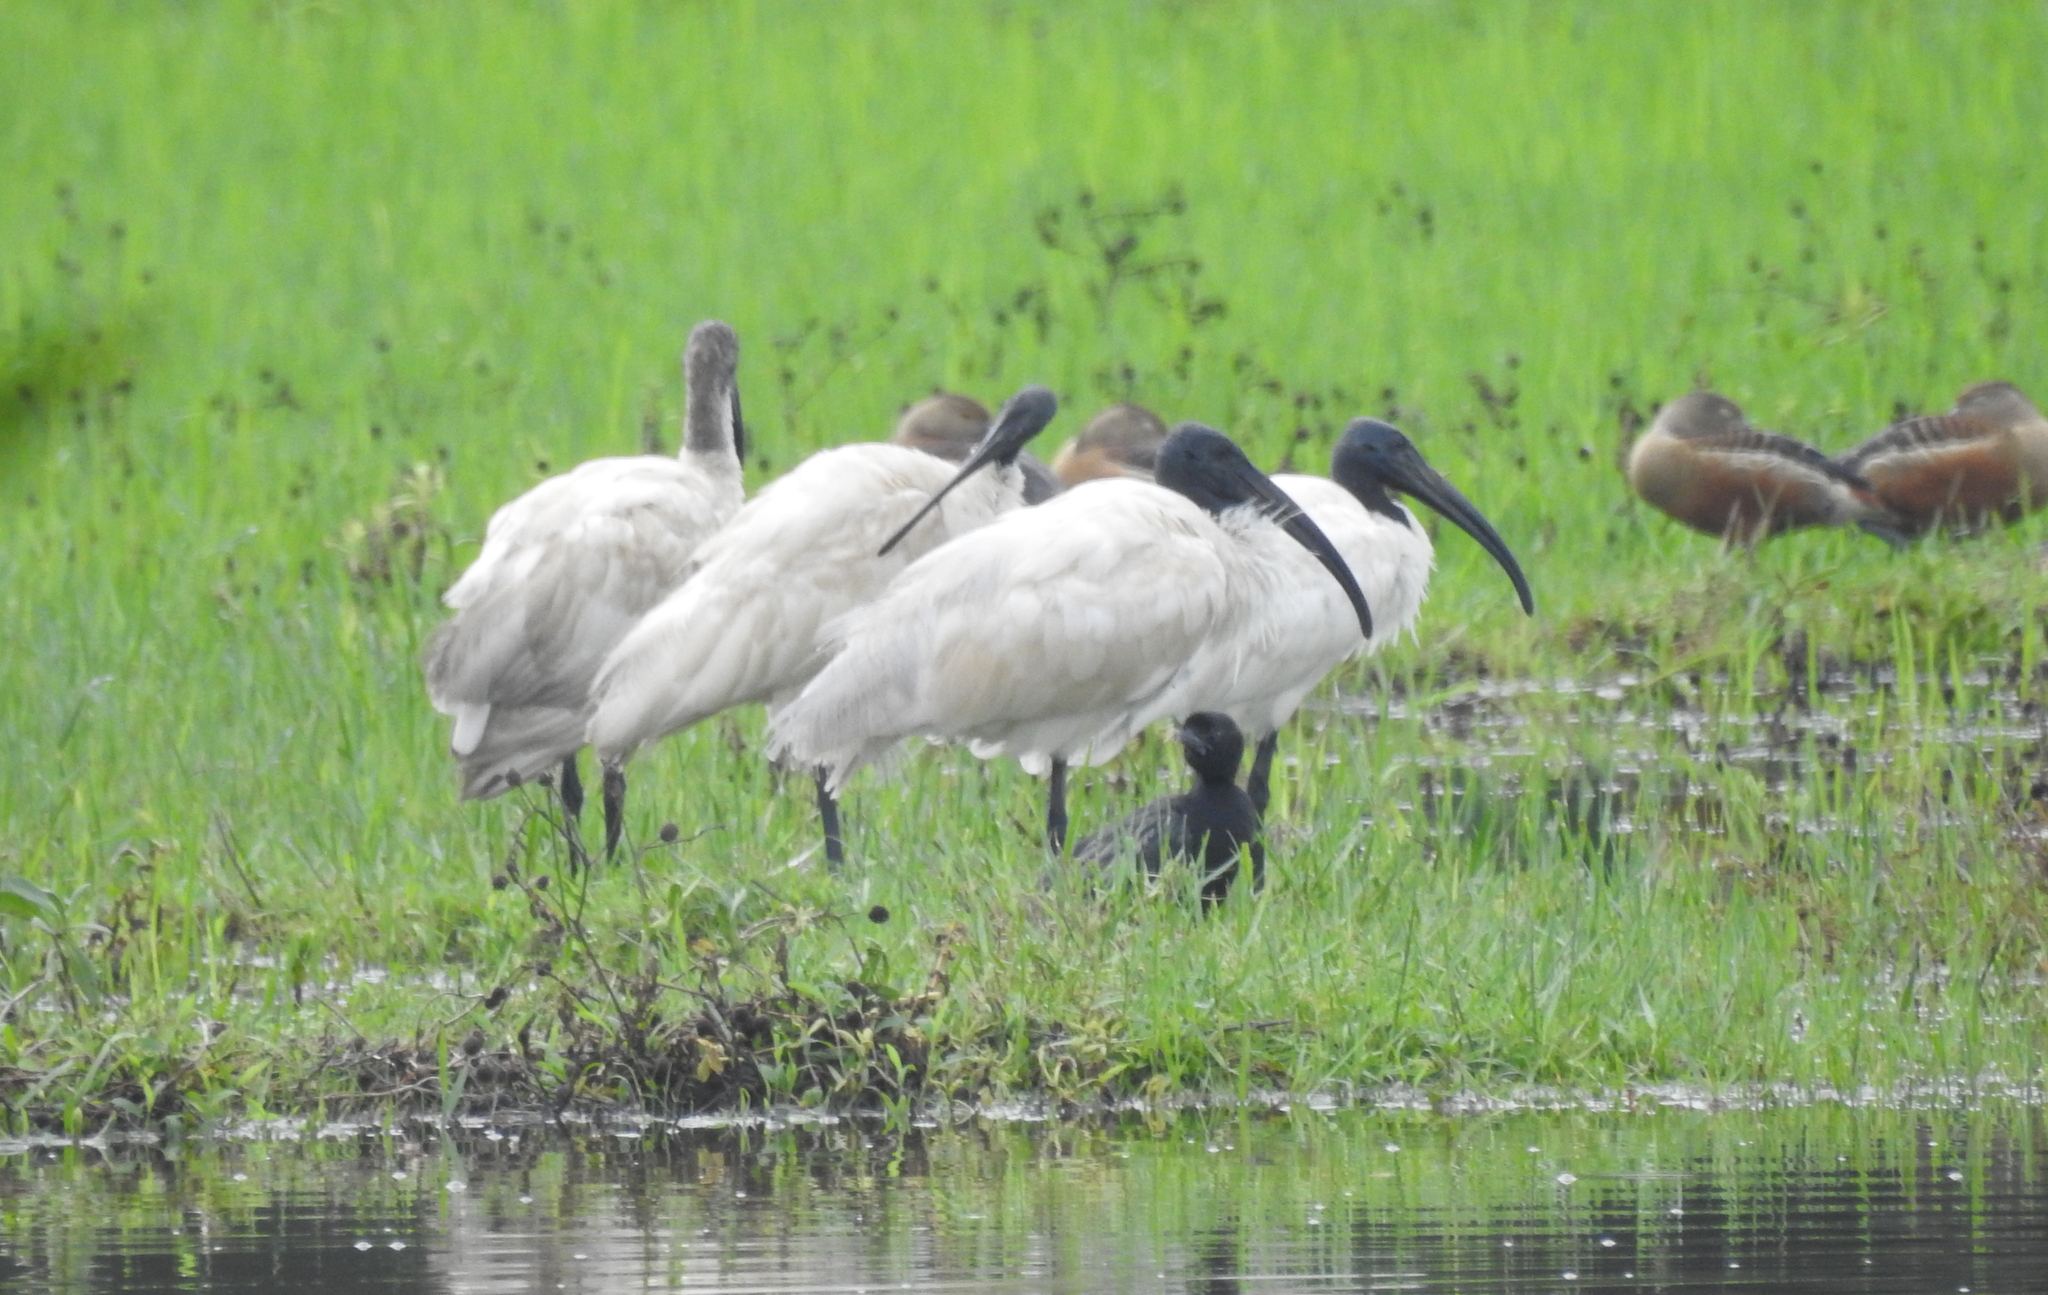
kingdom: Animalia
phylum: Chordata
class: Aves
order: Pelecaniformes
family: Threskiornithidae
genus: Threskiornis
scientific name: Threskiornis melanocephalus
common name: Black-headed ibis
